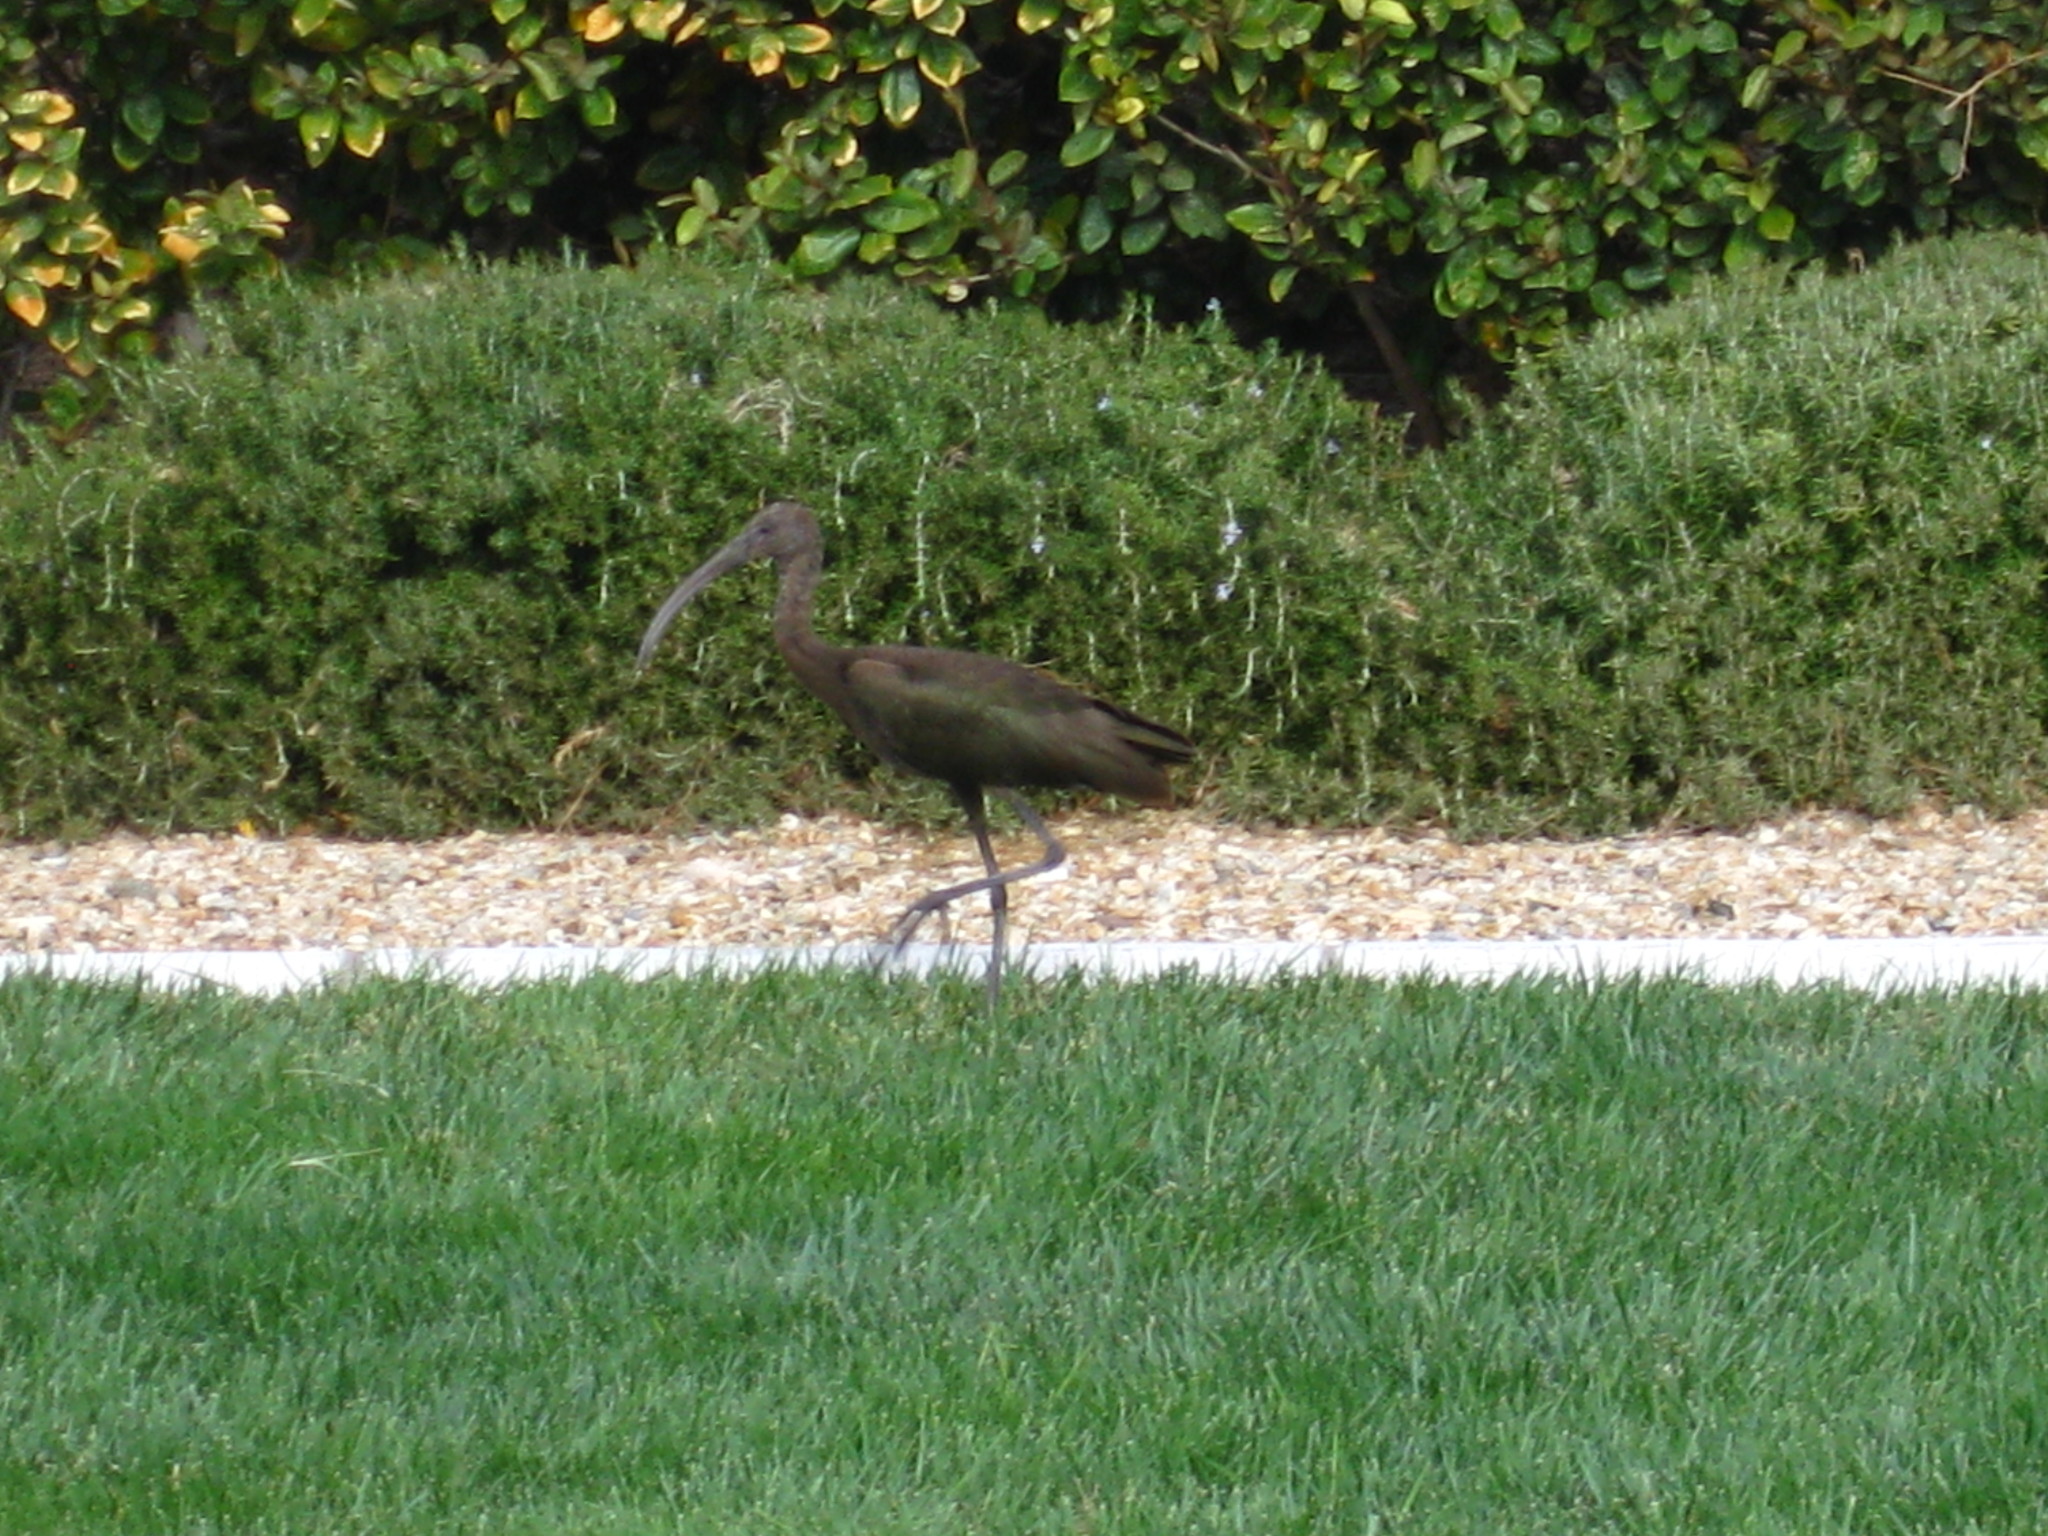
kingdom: Animalia
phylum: Chordata
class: Aves
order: Pelecaniformes
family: Threskiornithidae
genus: Plegadis
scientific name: Plegadis chihi
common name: White-faced ibis
